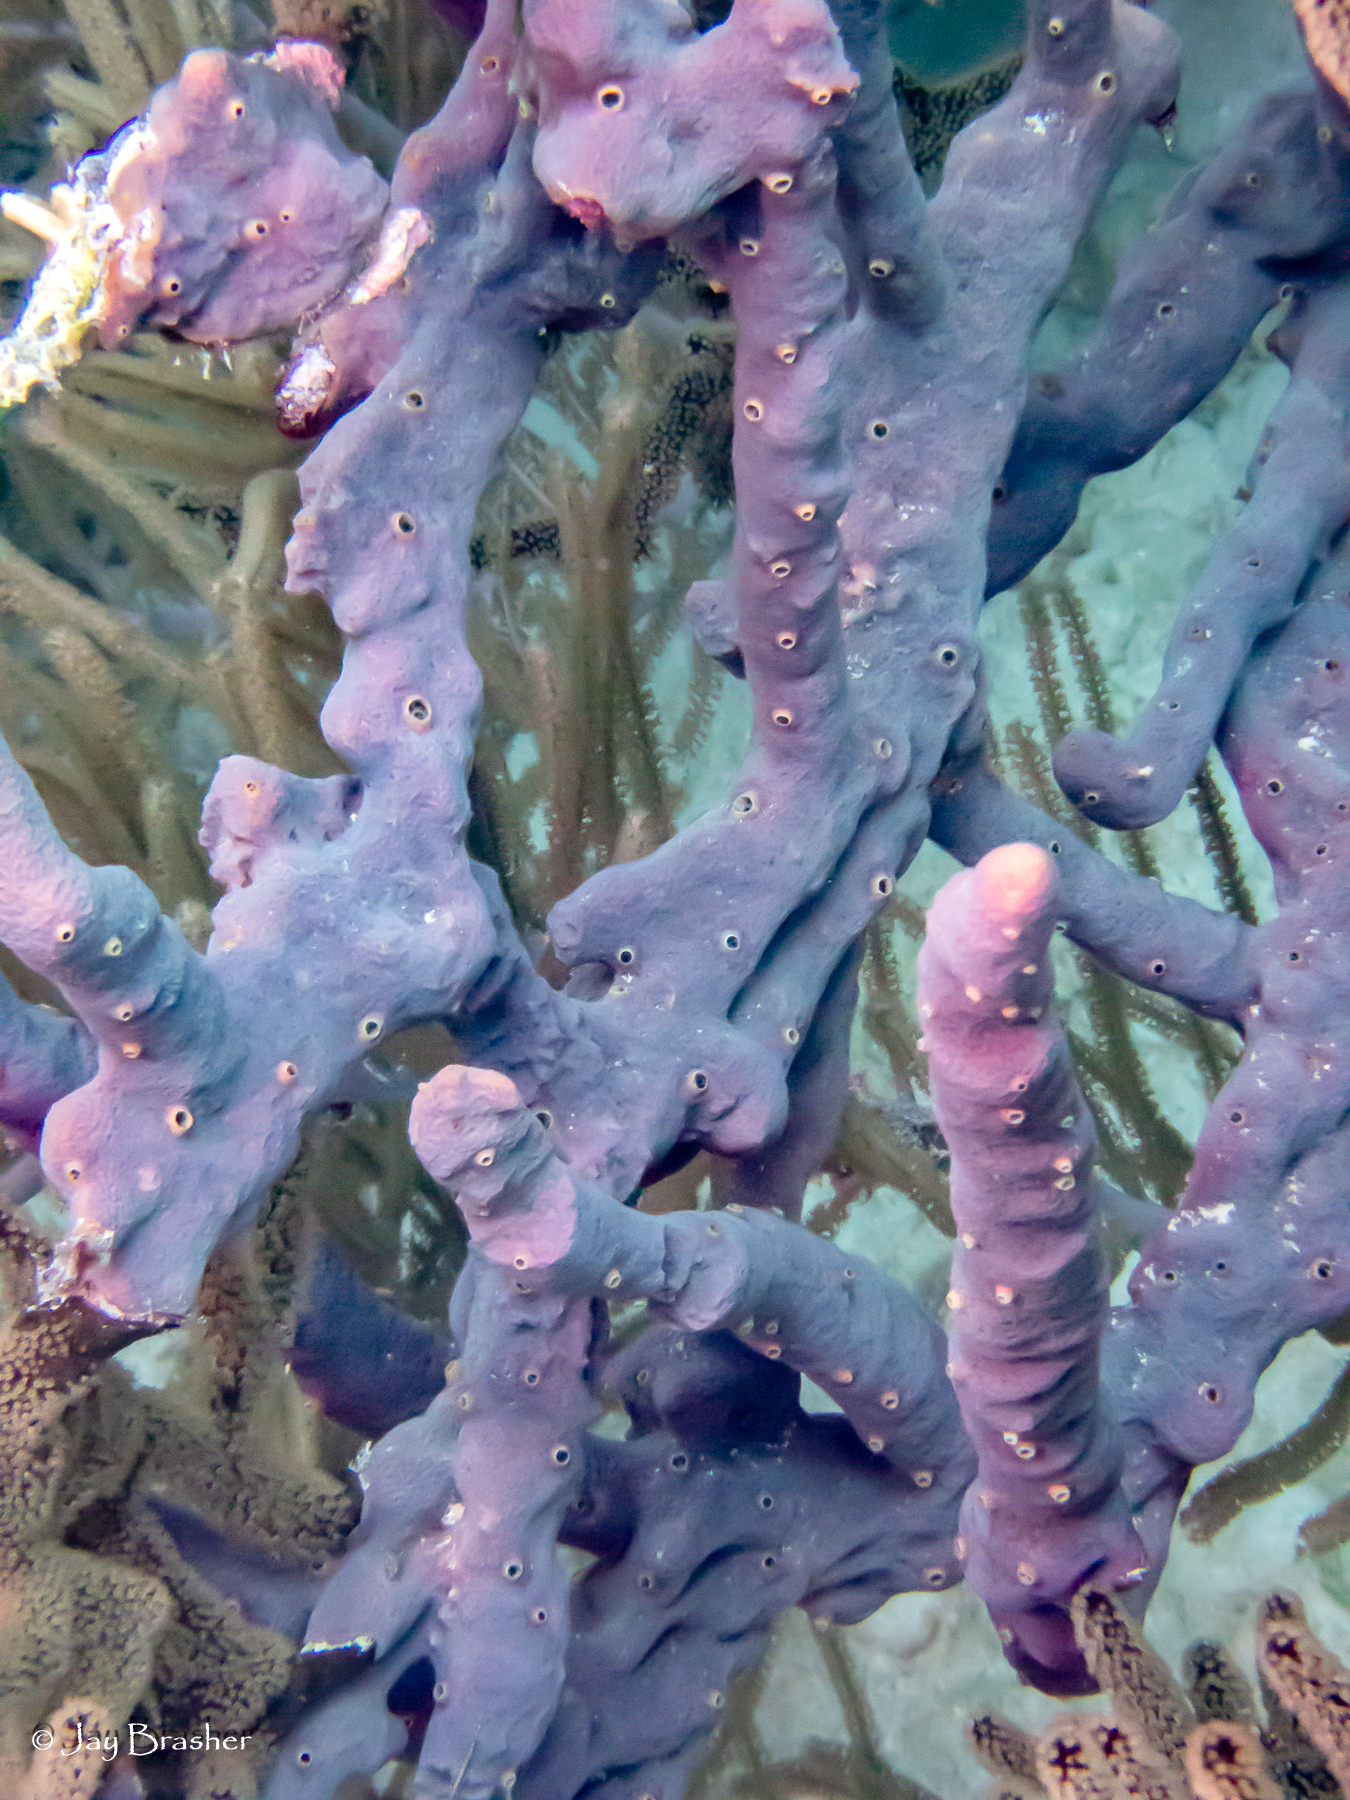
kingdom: Animalia
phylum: Porifera
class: Demospongiae
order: Verongiida
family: Aplysinidae
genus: Aplysina
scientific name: Aplysina cauliformis
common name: Branching candle sponge
